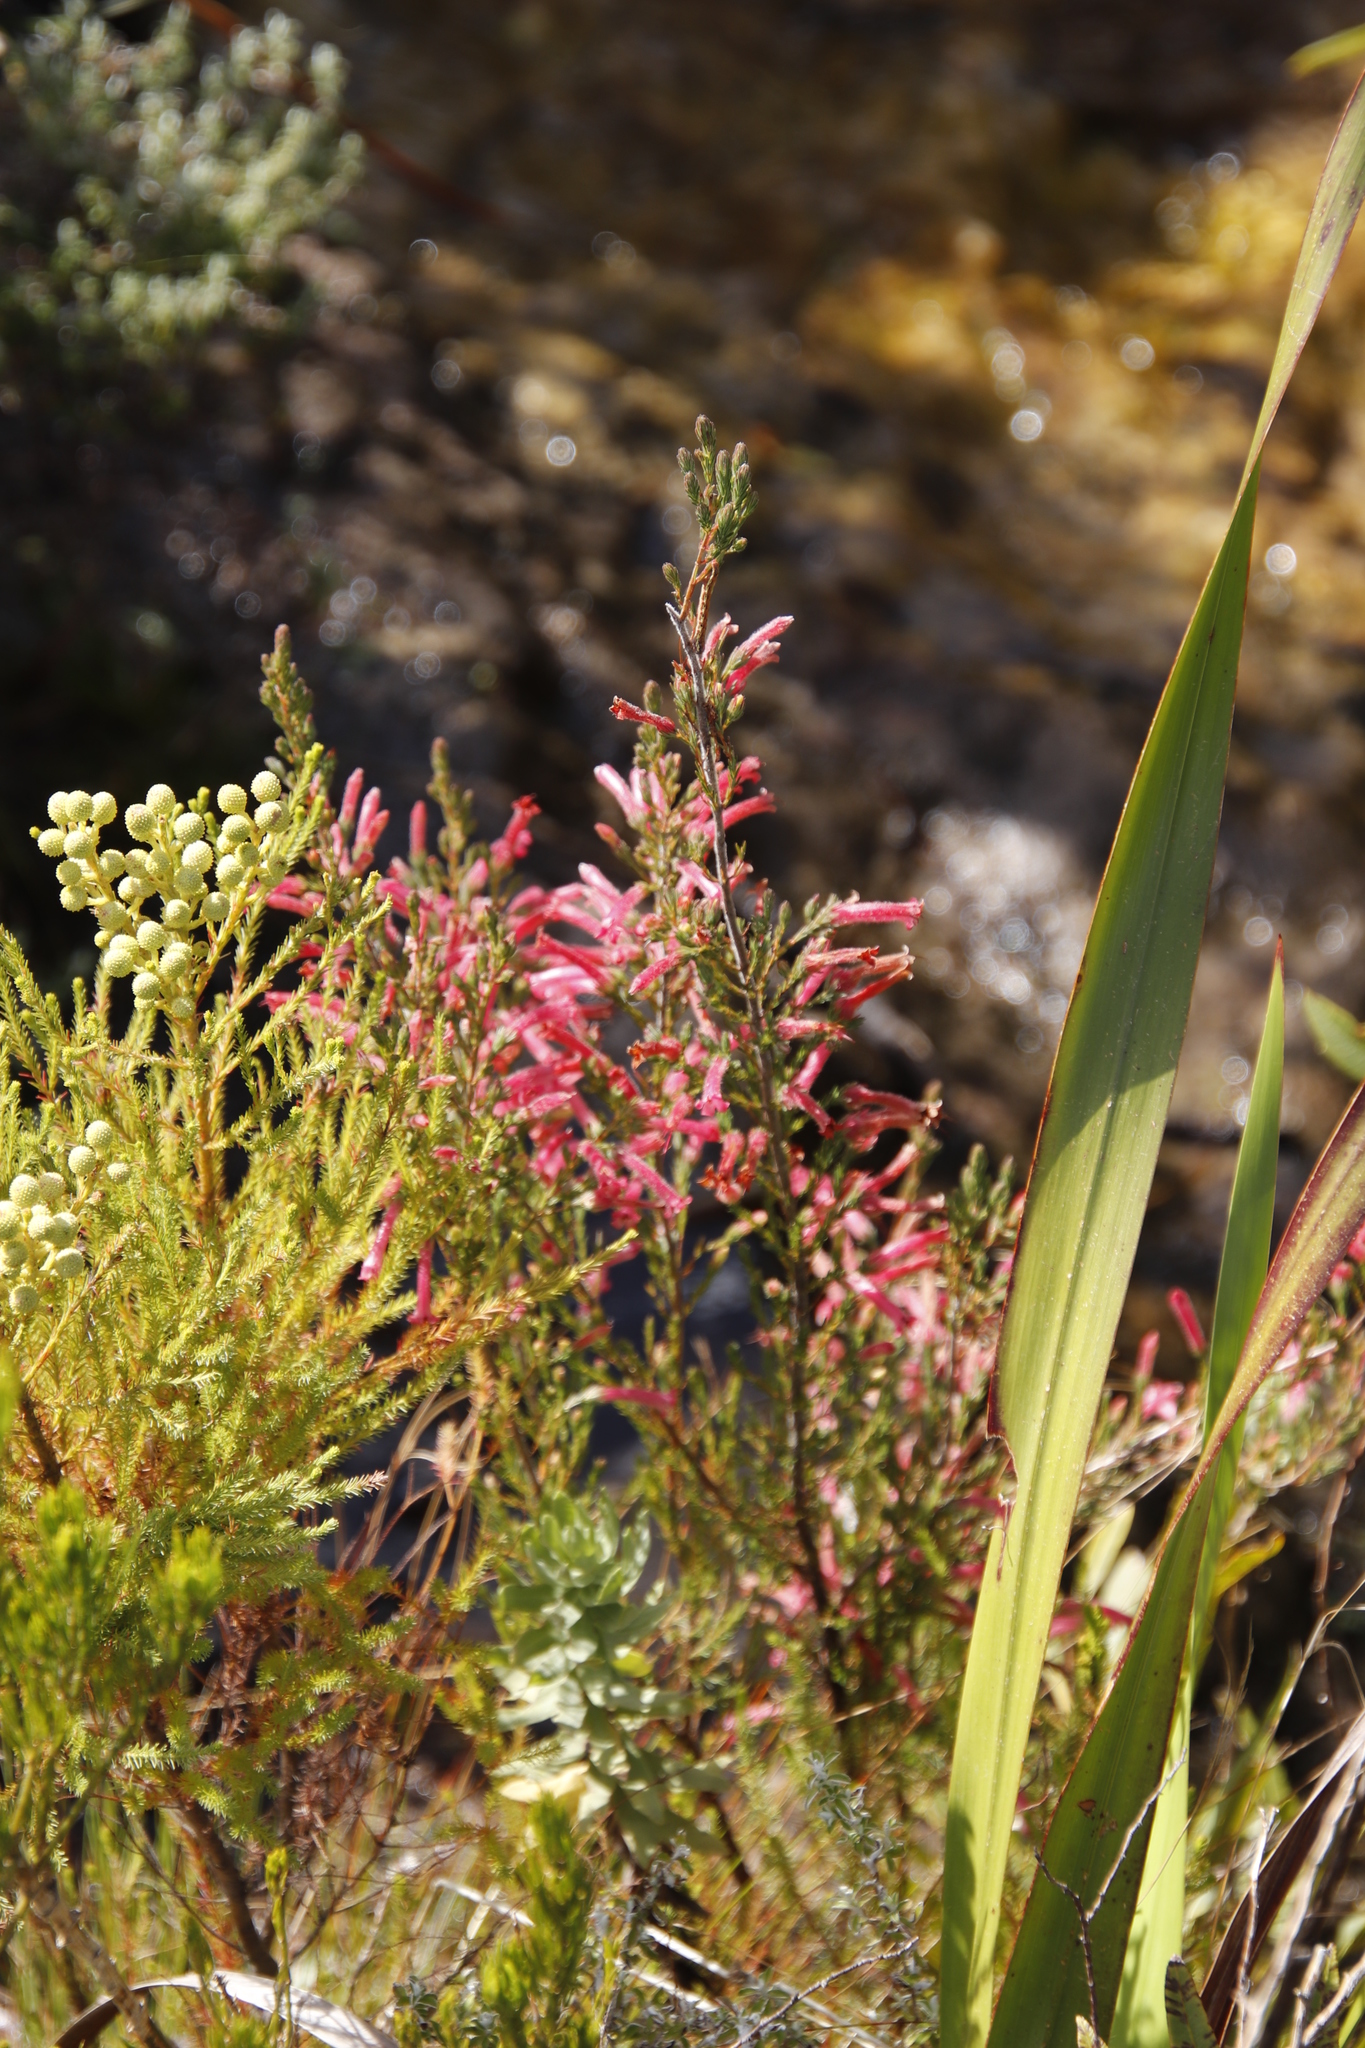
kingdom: Plantae
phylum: Tracheophyta
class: Magnoliopsida
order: Ericales
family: Ericaceae
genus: Erica
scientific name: Erica curviflora
